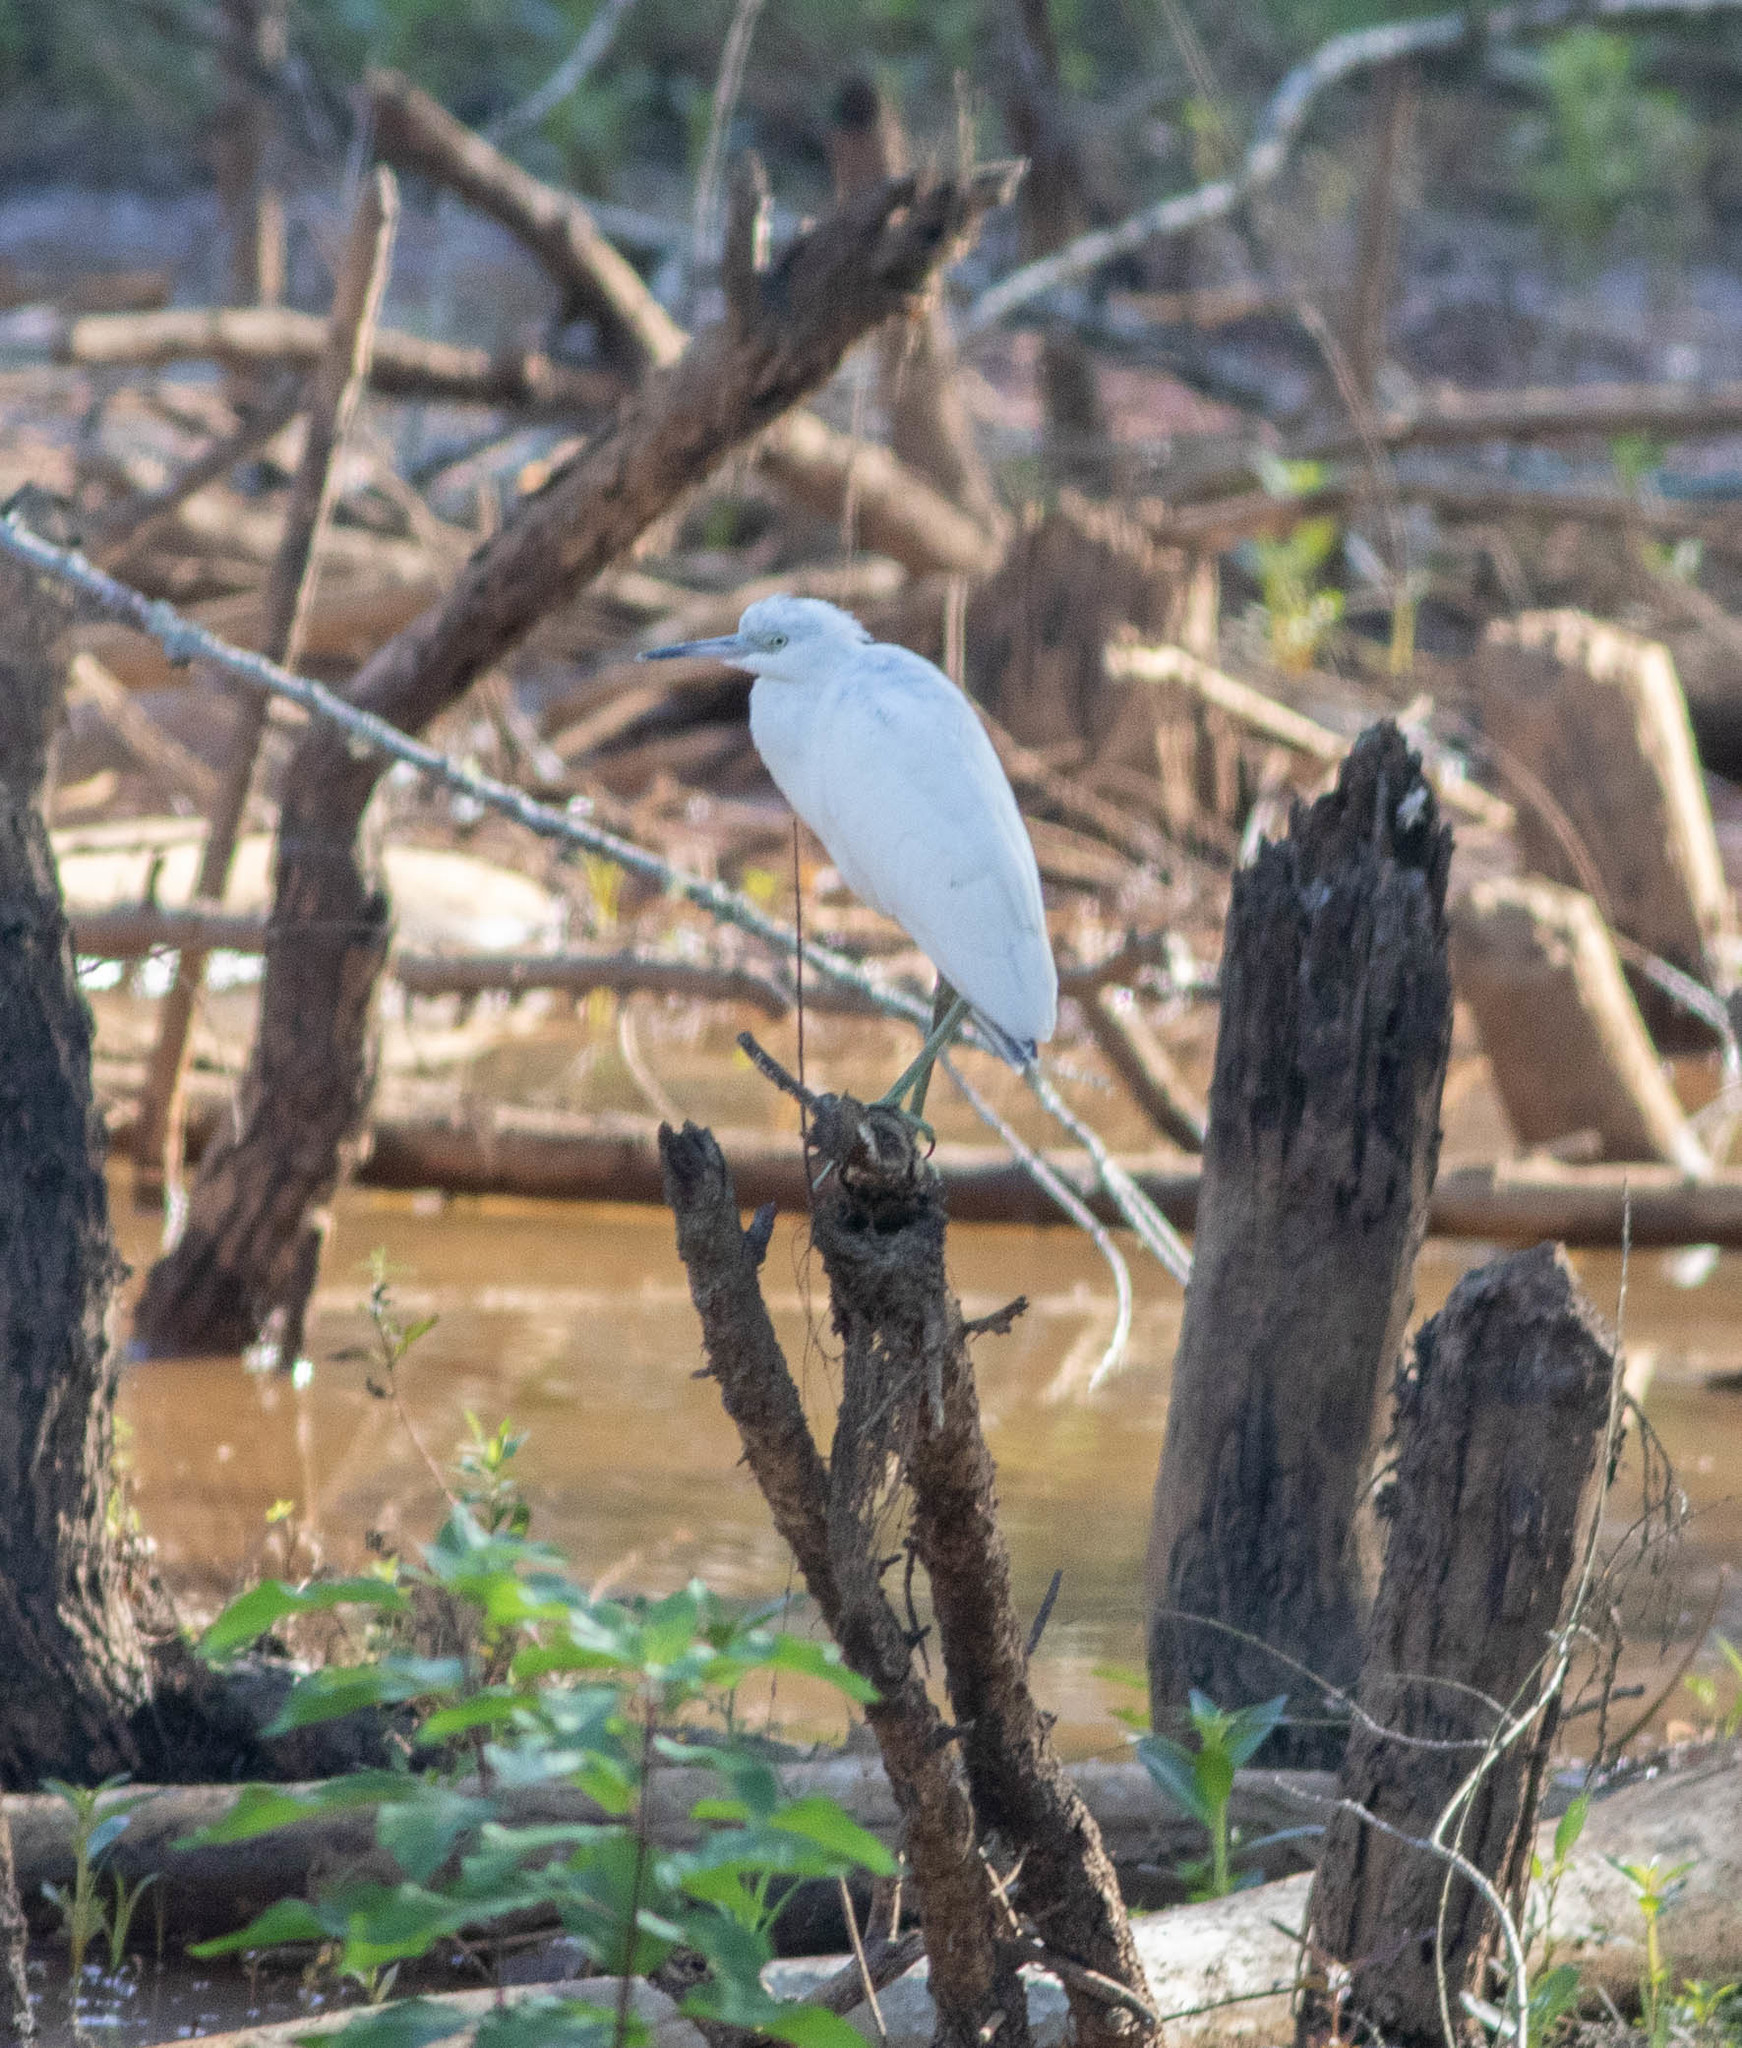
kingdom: Animalia
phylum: Chordata
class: Aves
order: Pelecaniformes
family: Ardeidae
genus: Egretta
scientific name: Egretta caerulea
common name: Little blue heron
